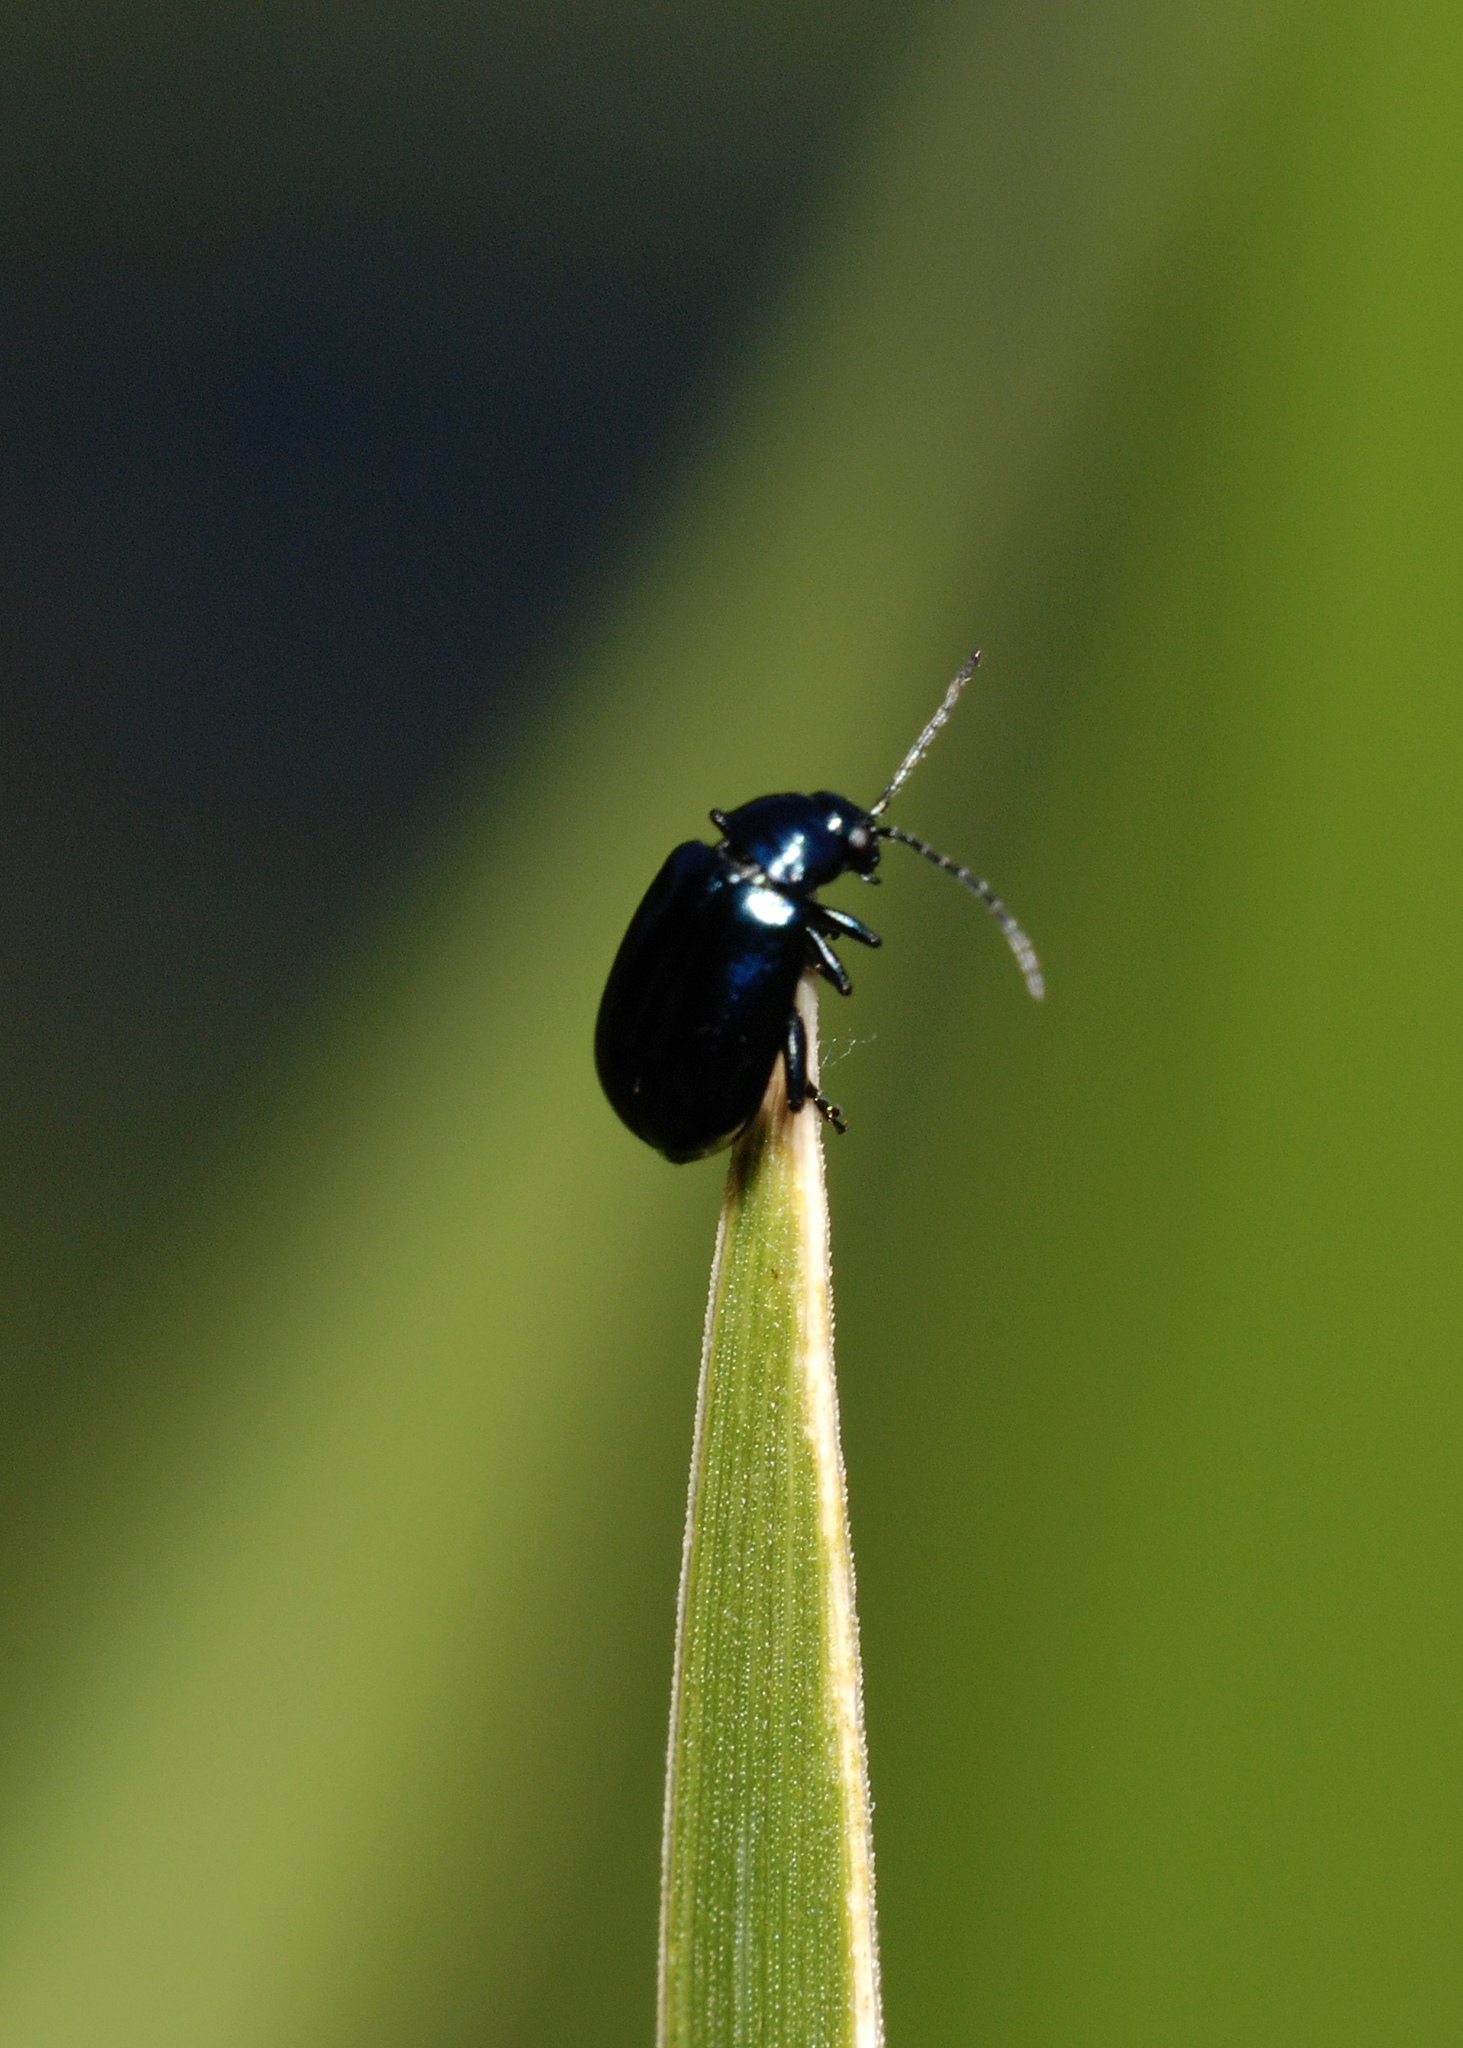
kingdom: Animalia
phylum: Arthropoda
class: Insecta
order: Coleoptera
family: Chrysomelidae
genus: Agelastica
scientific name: Agelastica alni
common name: Alder leaf beetle
